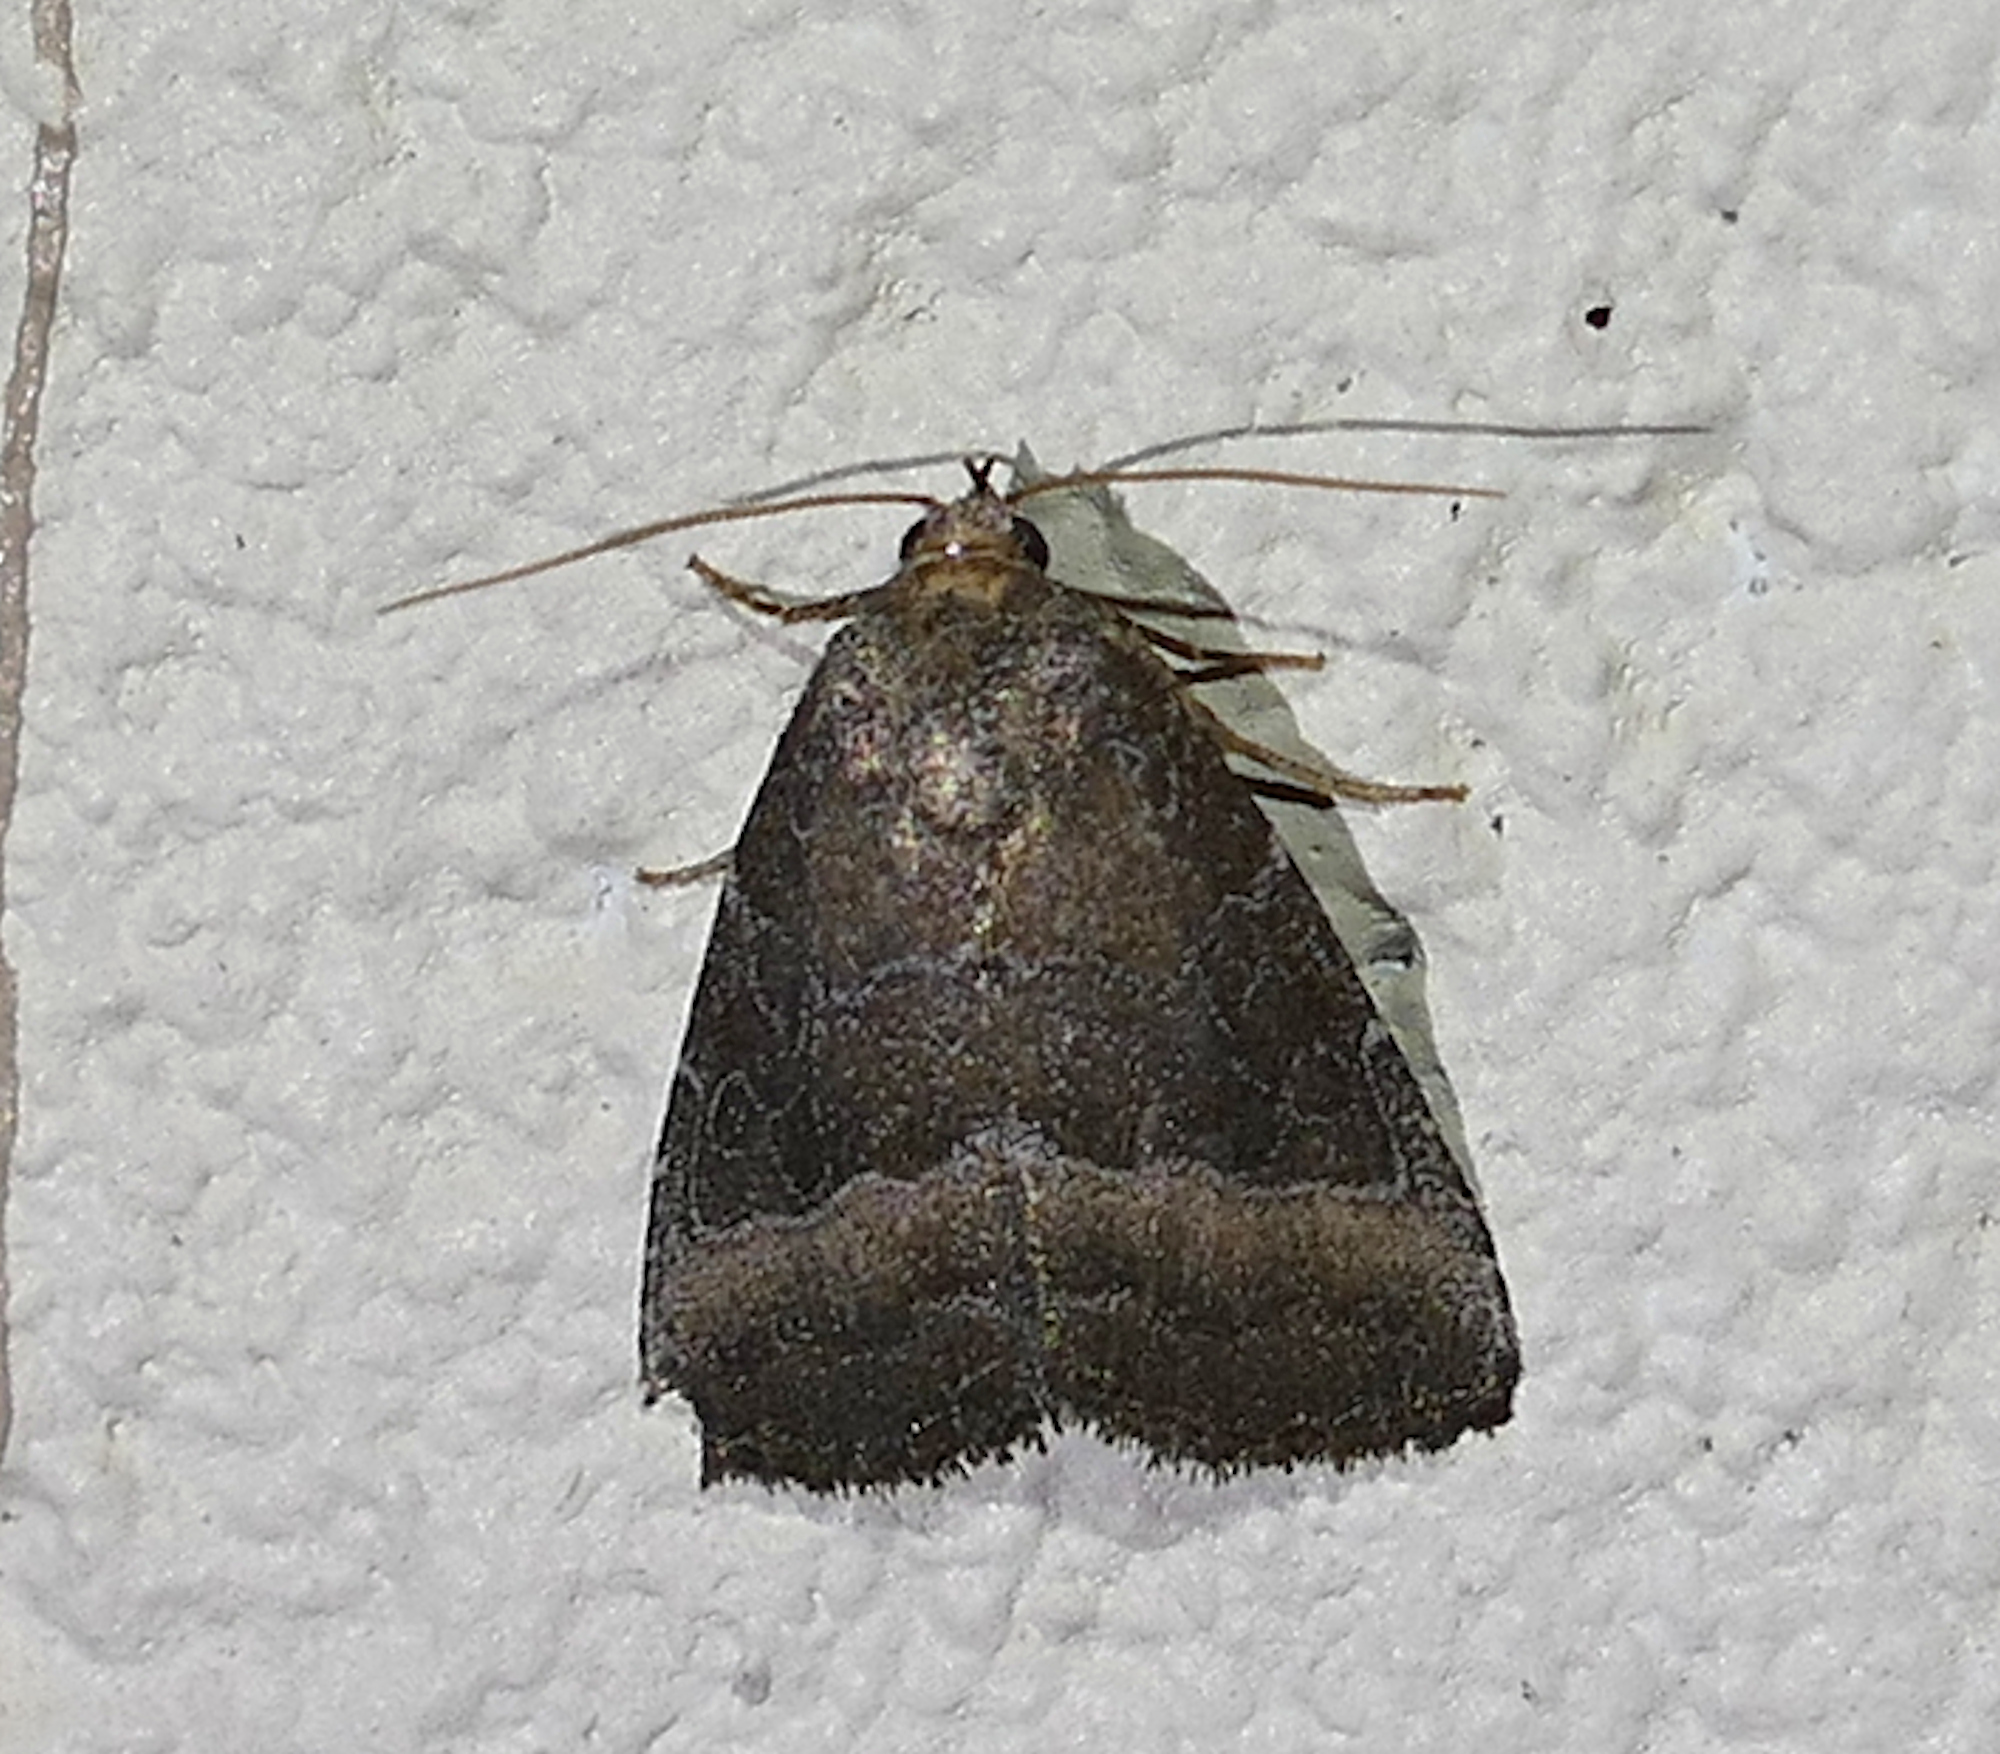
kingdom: Animalia
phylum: Arthropoda
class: Insecta
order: Lepidoptera
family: Noctuidae
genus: Ogdoconta
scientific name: Ogdoconta cinereola
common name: Common pinkband
